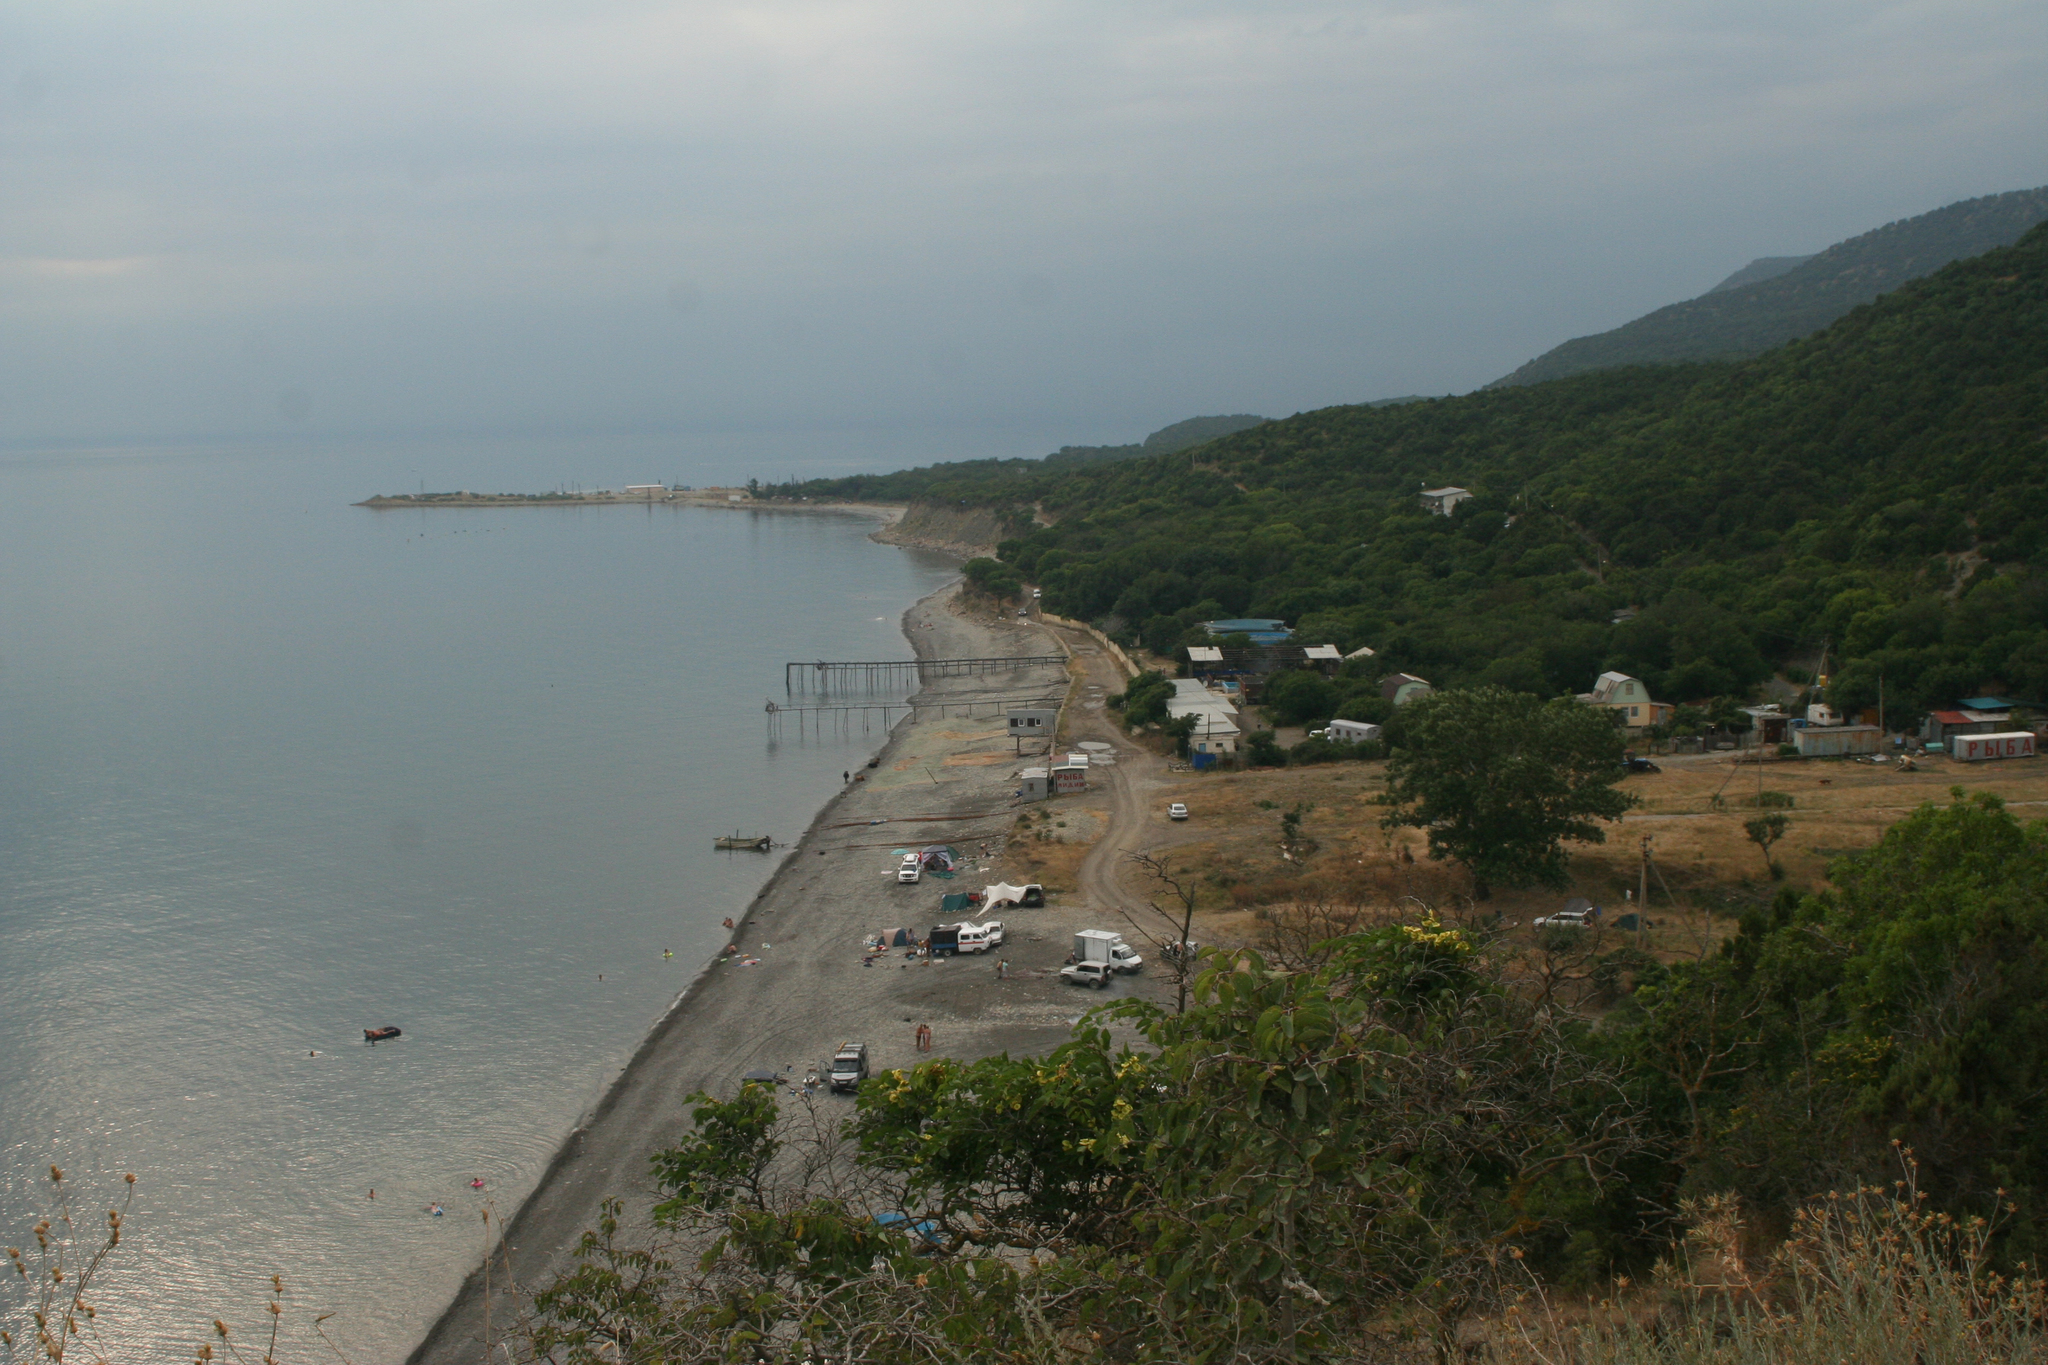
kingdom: Plantae
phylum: Tracheophyta
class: Magnoliopsida
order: Rosales
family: Rhamnaceae
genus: Paliurus
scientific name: Paliurus spina-christi
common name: Jeruselem thorn
